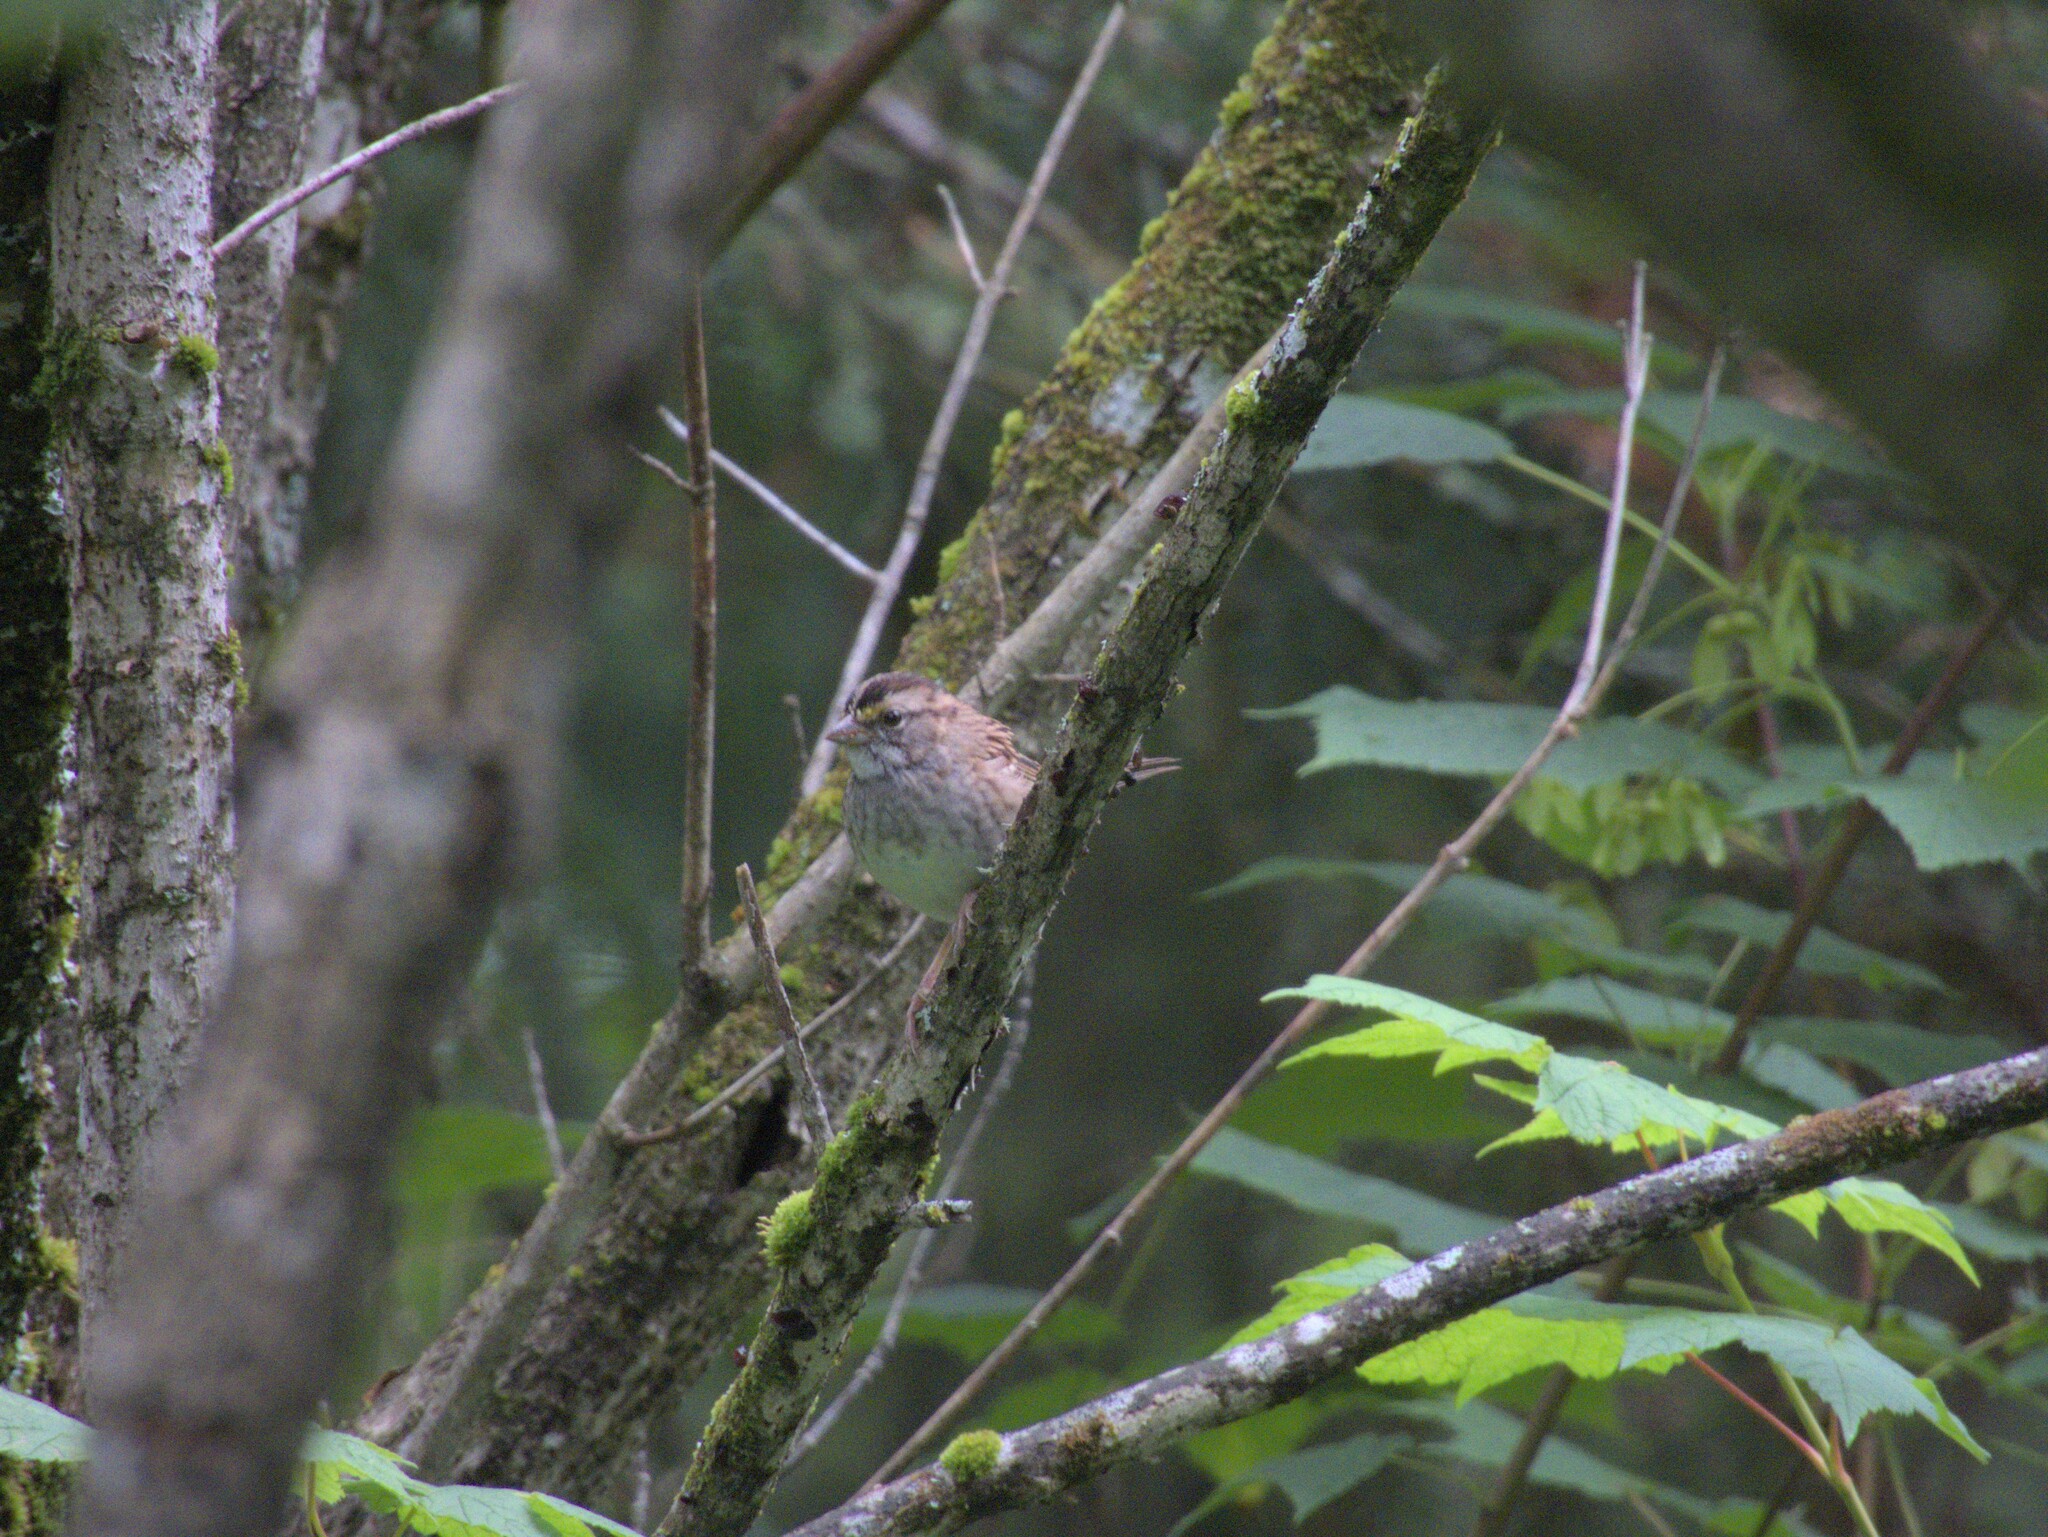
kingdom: Animalia
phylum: Chordata
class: Aves
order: Passeriformes
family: Passerellidae
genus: Zonotrichia
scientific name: Zonotrichia albicollis
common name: White-throated sparrow
